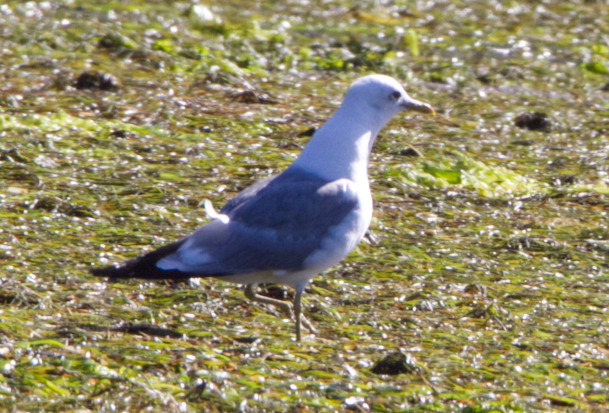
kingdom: Animalia
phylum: Chordata
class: Aves
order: Charadriiformes
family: Laridae
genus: Larus
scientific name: Larus brachyrhynchus
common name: Short-billed gull
